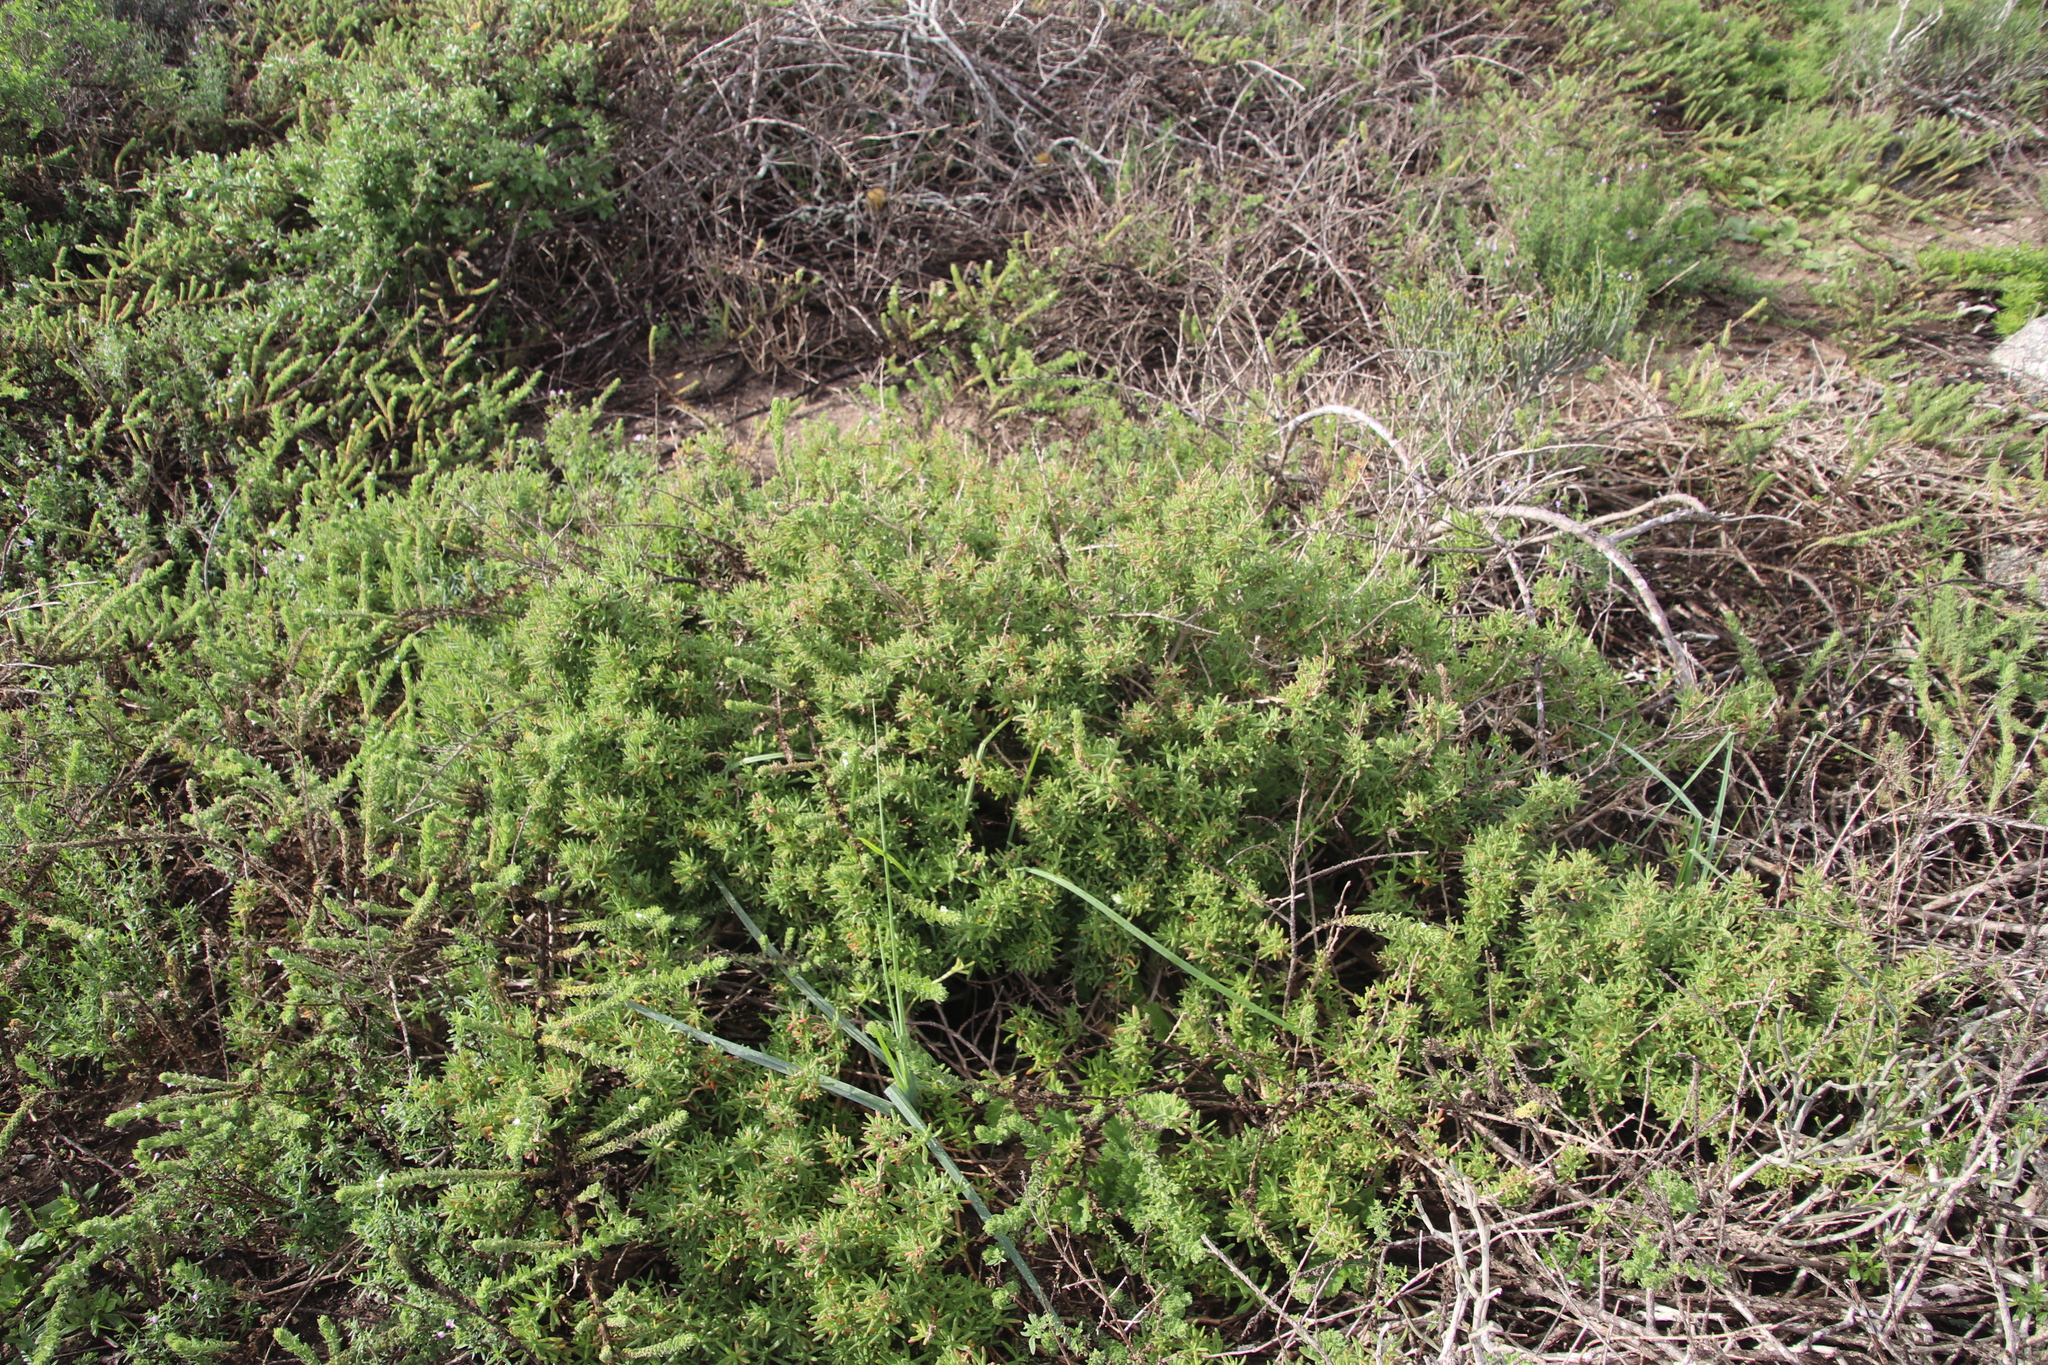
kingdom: Plantae
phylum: Tracheophyta
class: Magnoliopsida
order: Caryophyllales
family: Aizoaceae
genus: Tetragonia
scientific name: Tetragonia fruticosa
